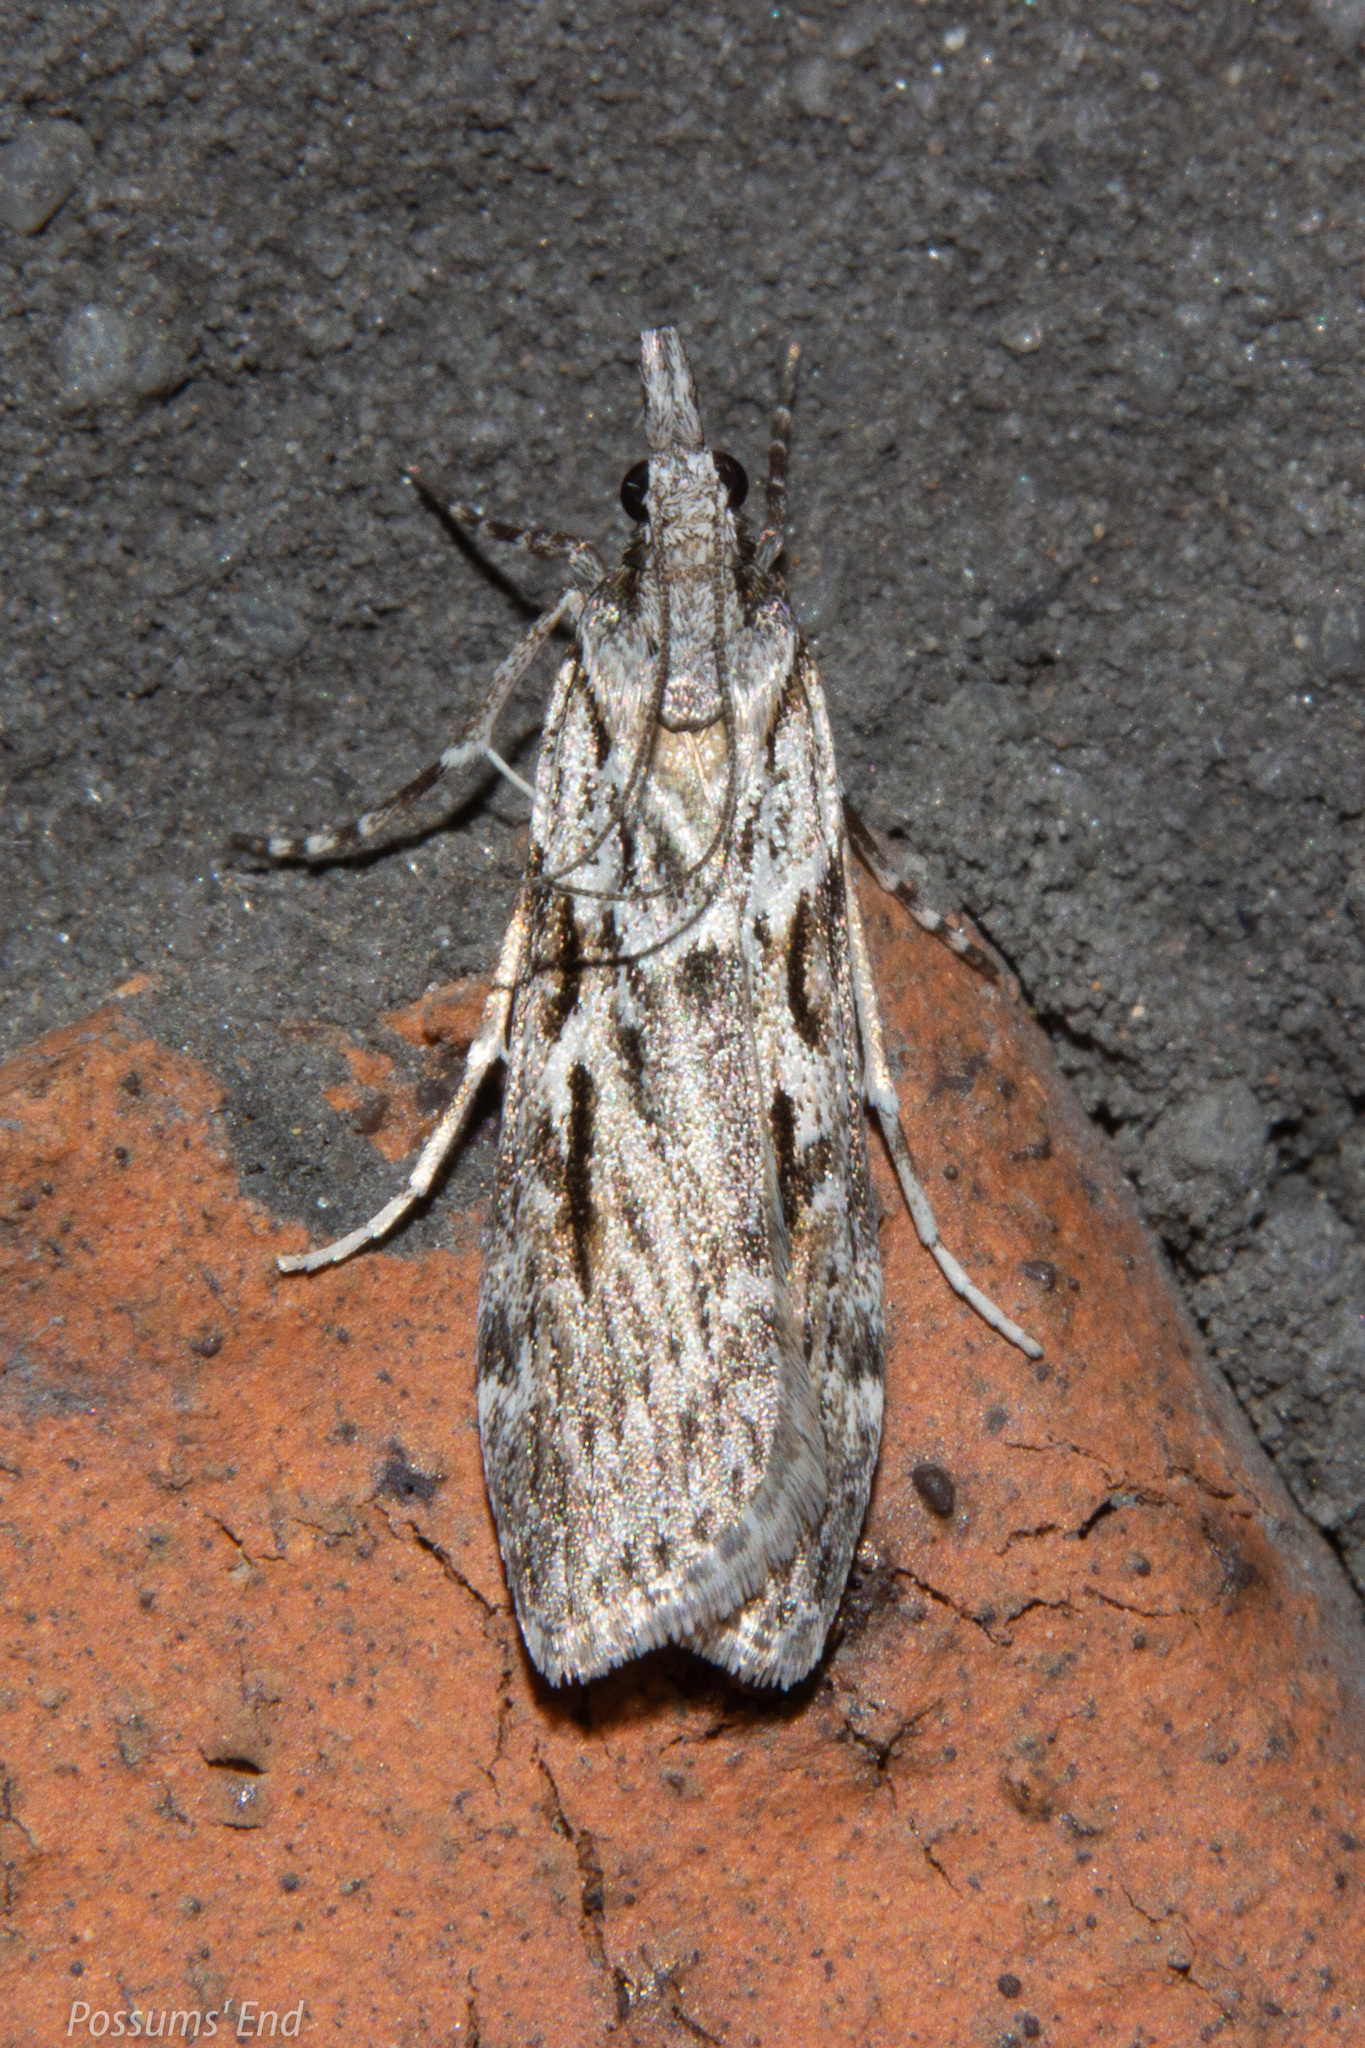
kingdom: Animalia
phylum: Arthropoda
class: Insecta
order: Lepidoptera
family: Crambidae
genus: Scoparia
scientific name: Scoparia halopis
